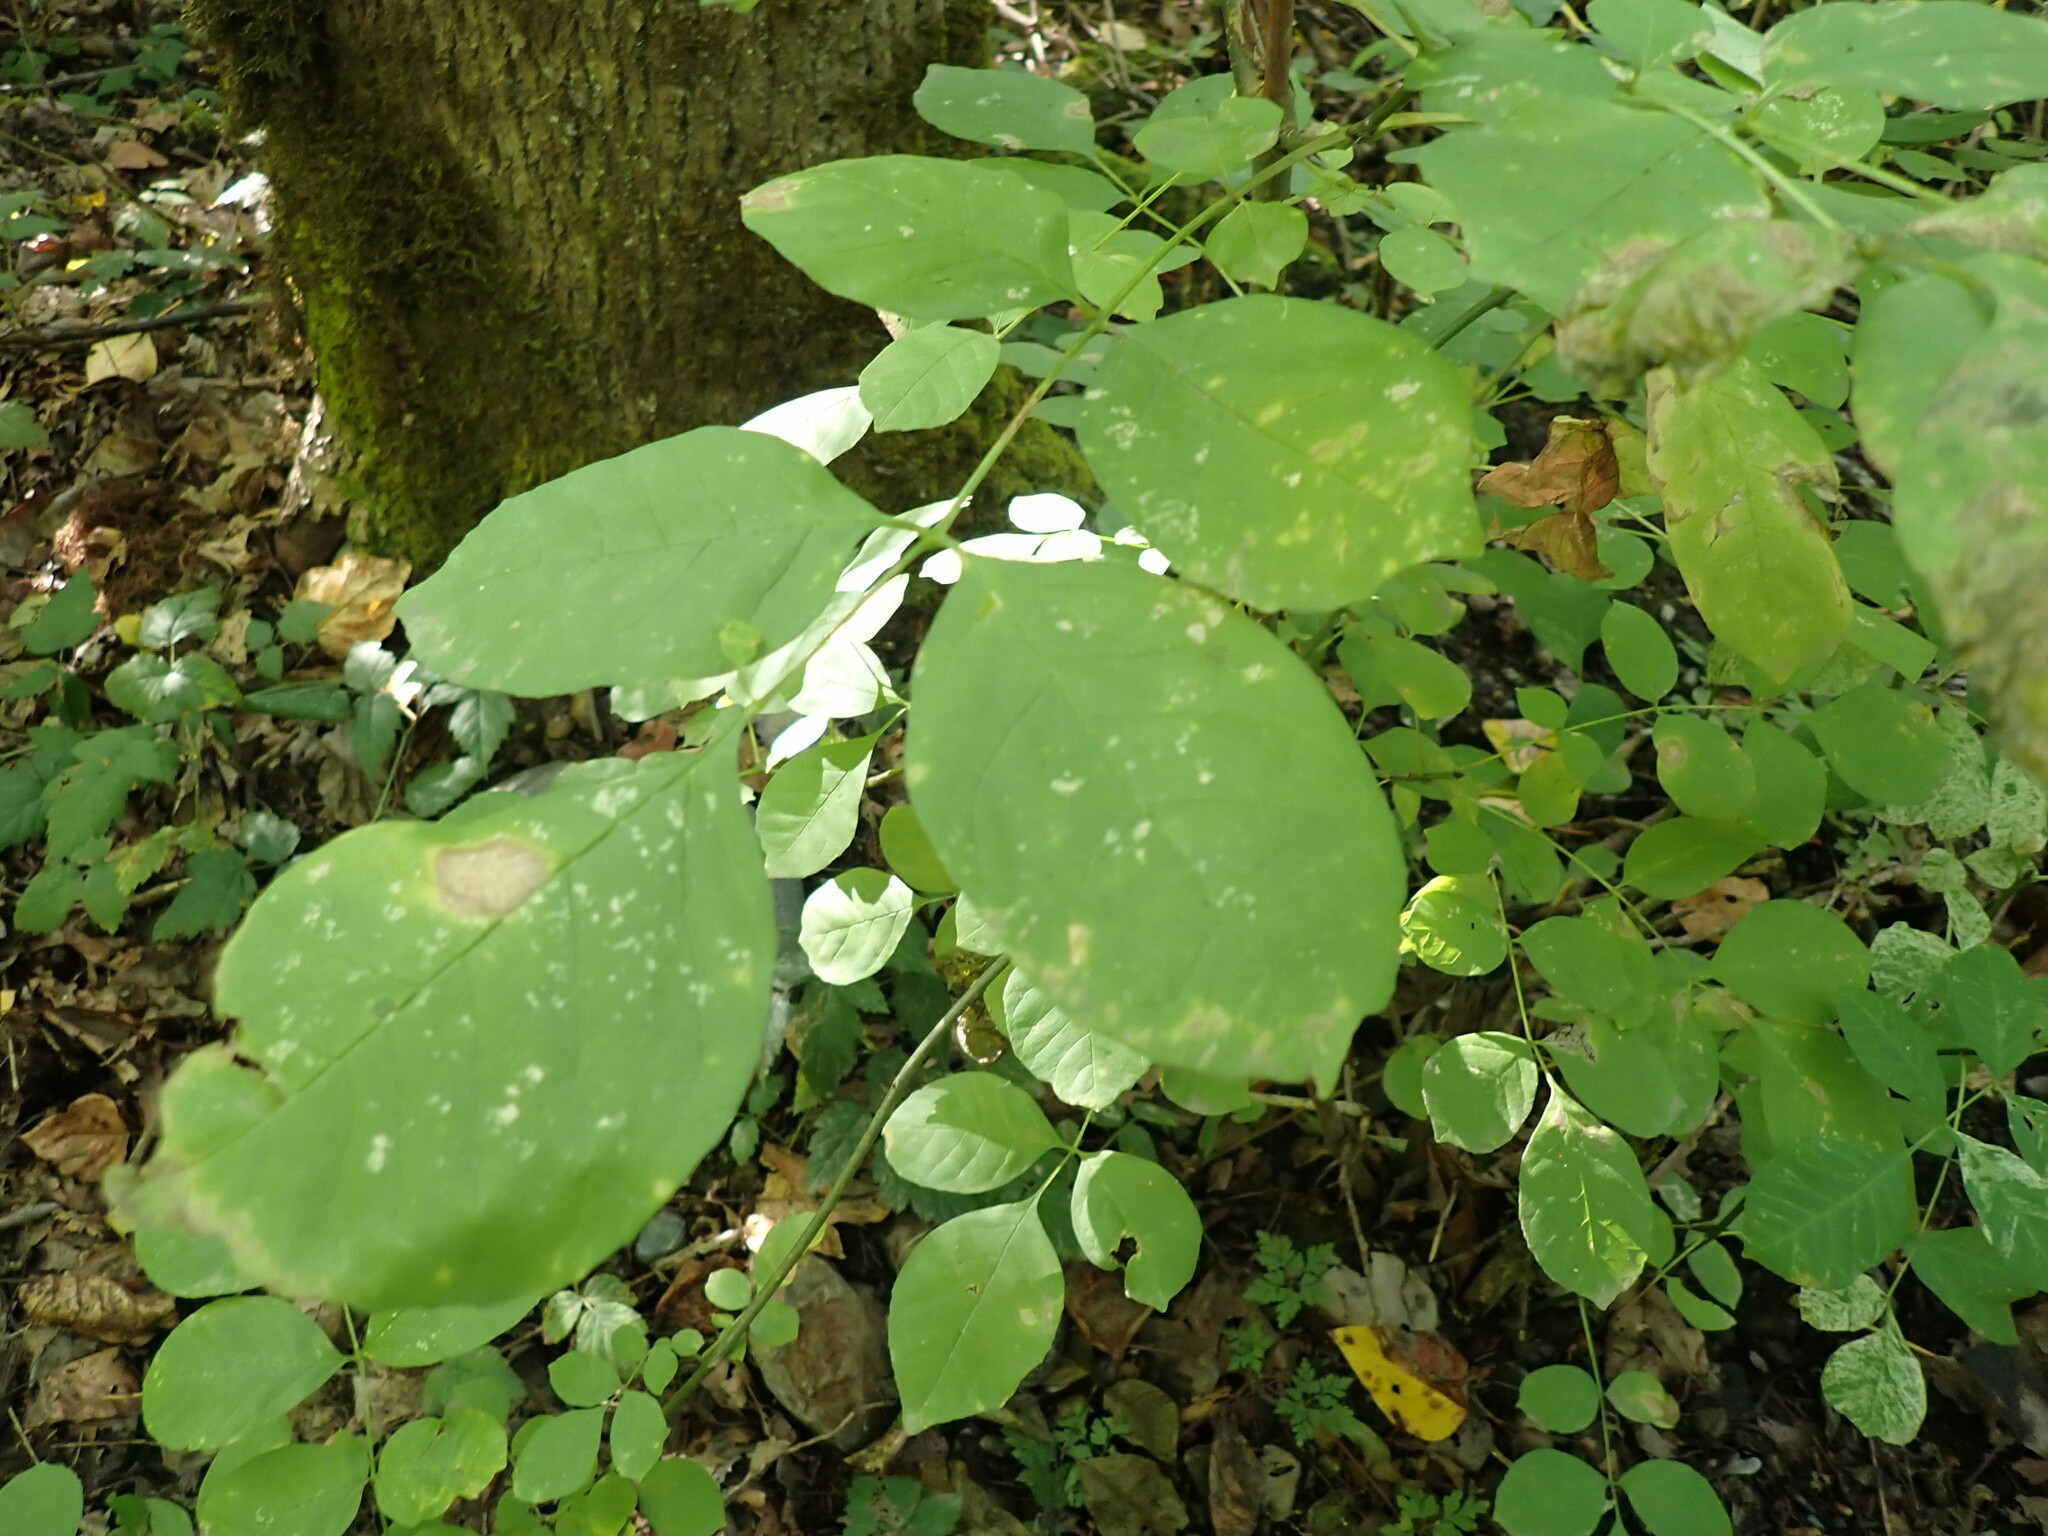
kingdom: Plantae
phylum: Tracheophyta
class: Magnoliopsida
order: Lamiales
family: Oleaceae
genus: Fraxinus
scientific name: Fraxinus latifolia
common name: Oregon ash
